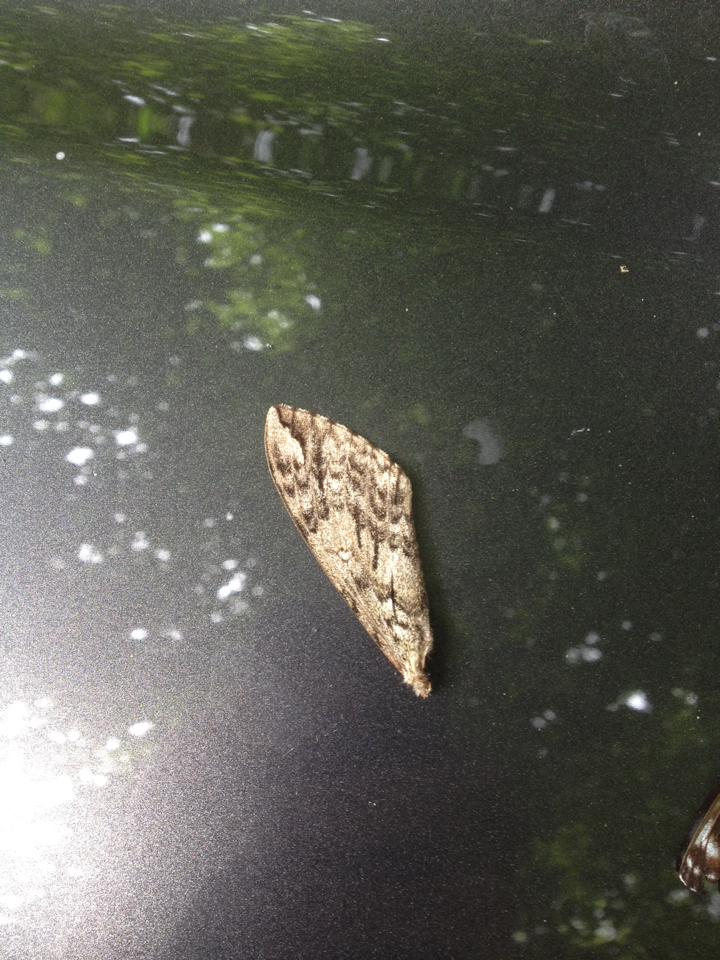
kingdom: Animalia
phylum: Arthropoda
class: Insecta
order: Lepidoptera
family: Sphingidae
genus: Ceratomia
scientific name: Ceratomia undulosa
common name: Waved sphinx
